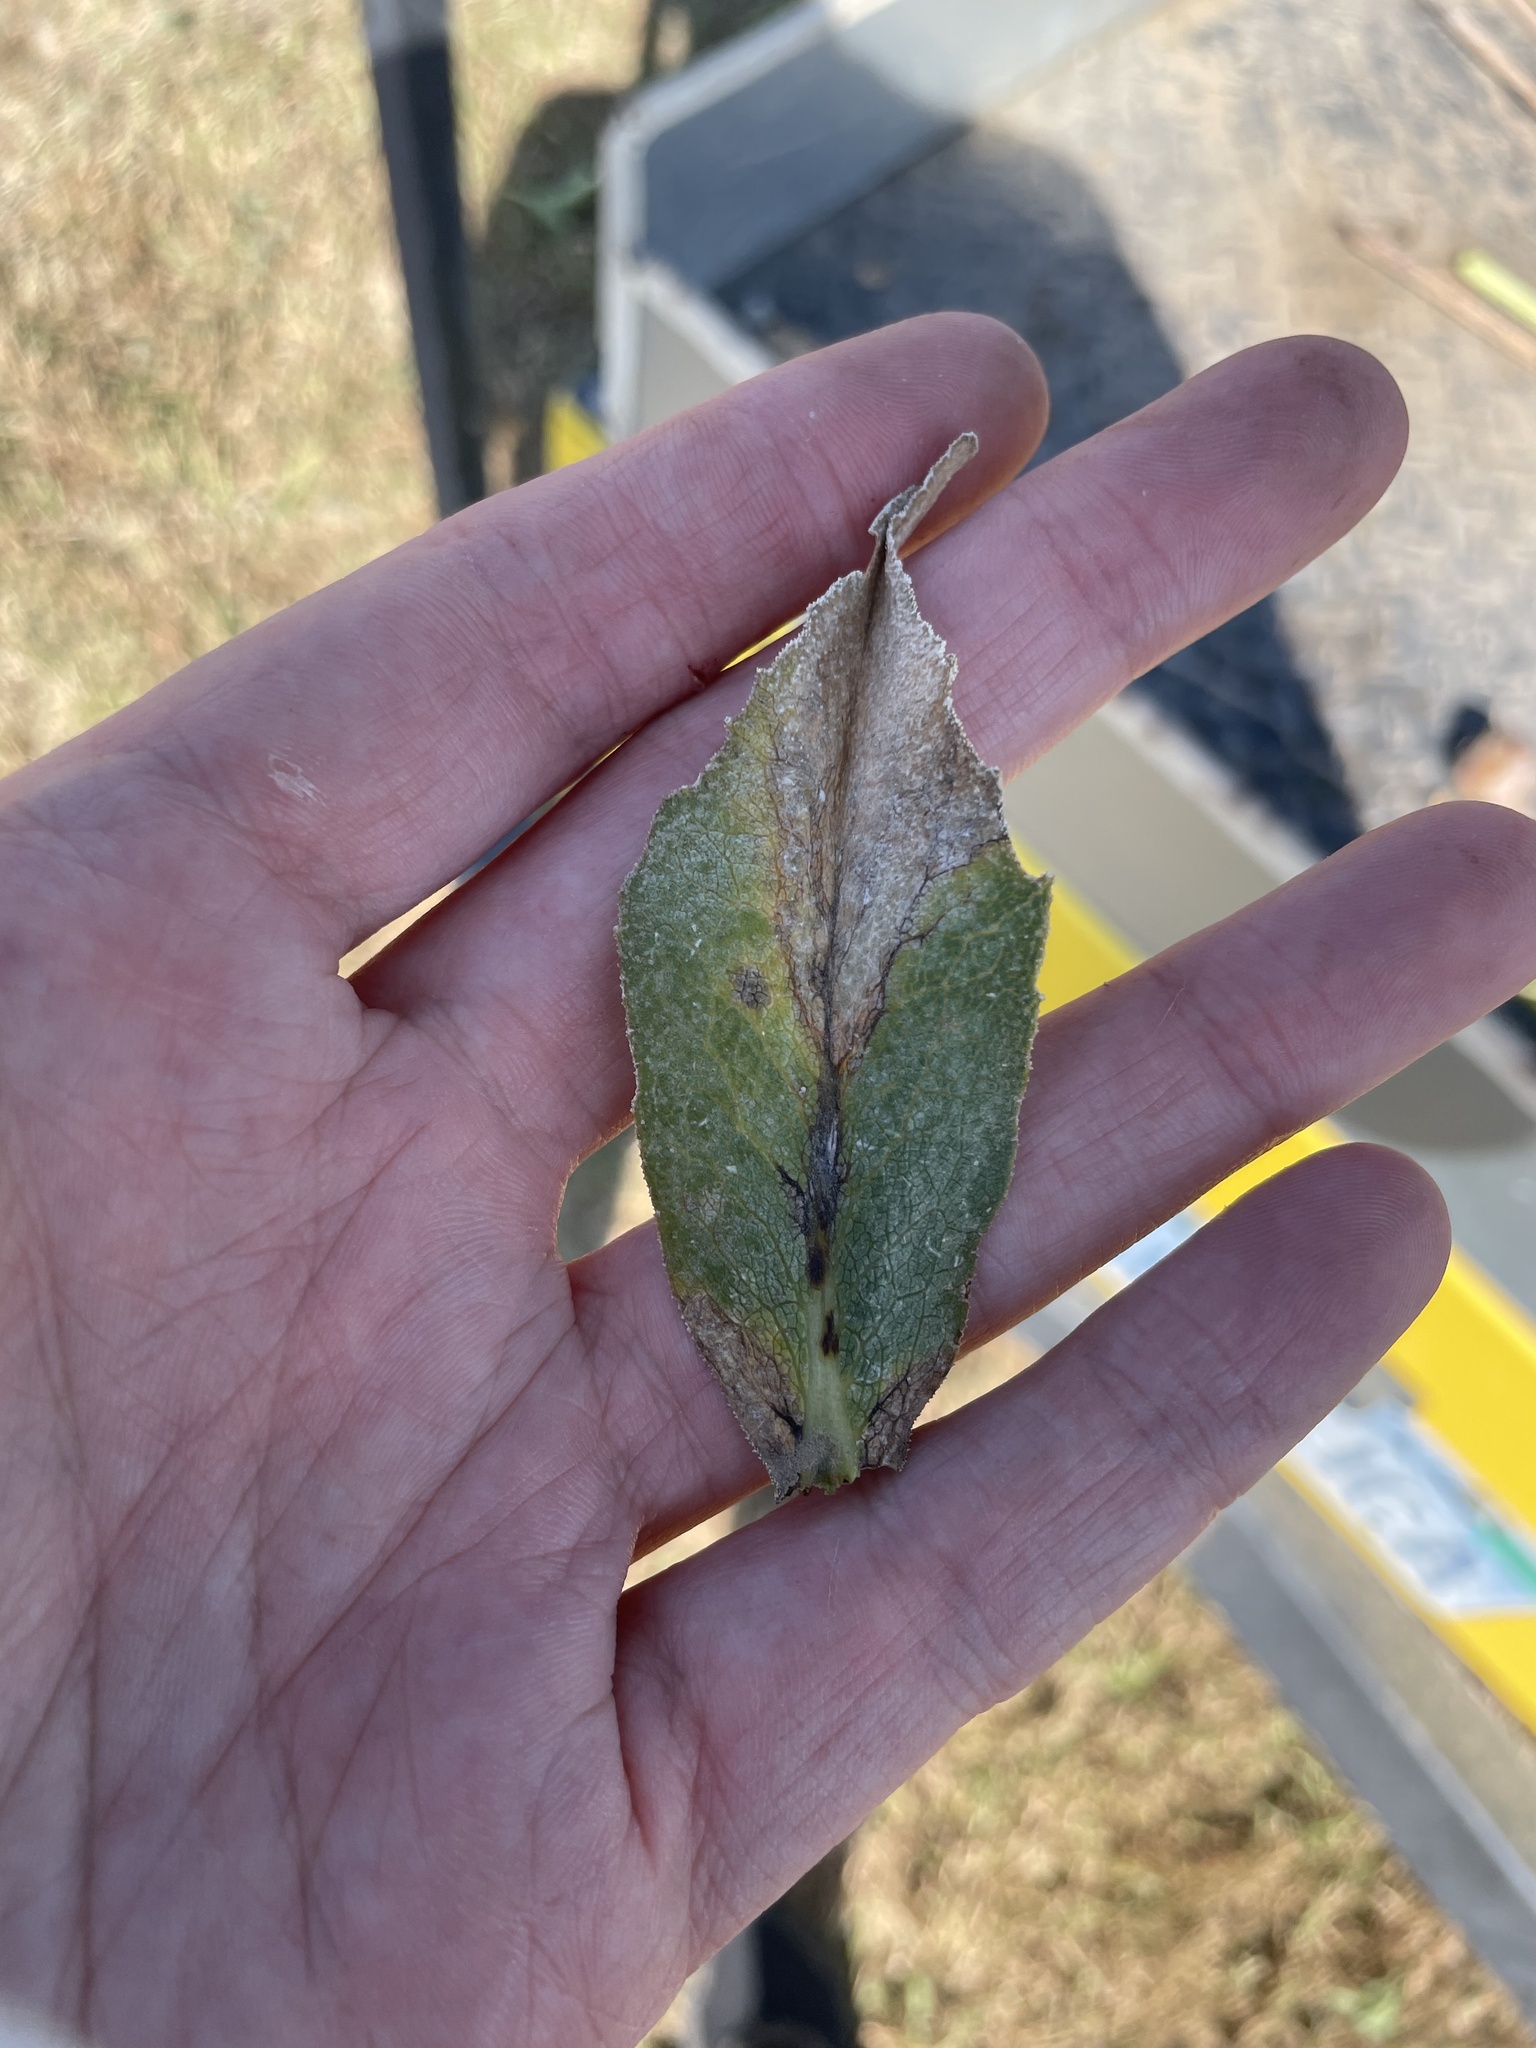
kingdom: Fungi
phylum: Basidiomycota
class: Pucciniomycetes
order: Pucciniales
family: Pucciniaceae
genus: Puccinia
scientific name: Puccinia silphii
